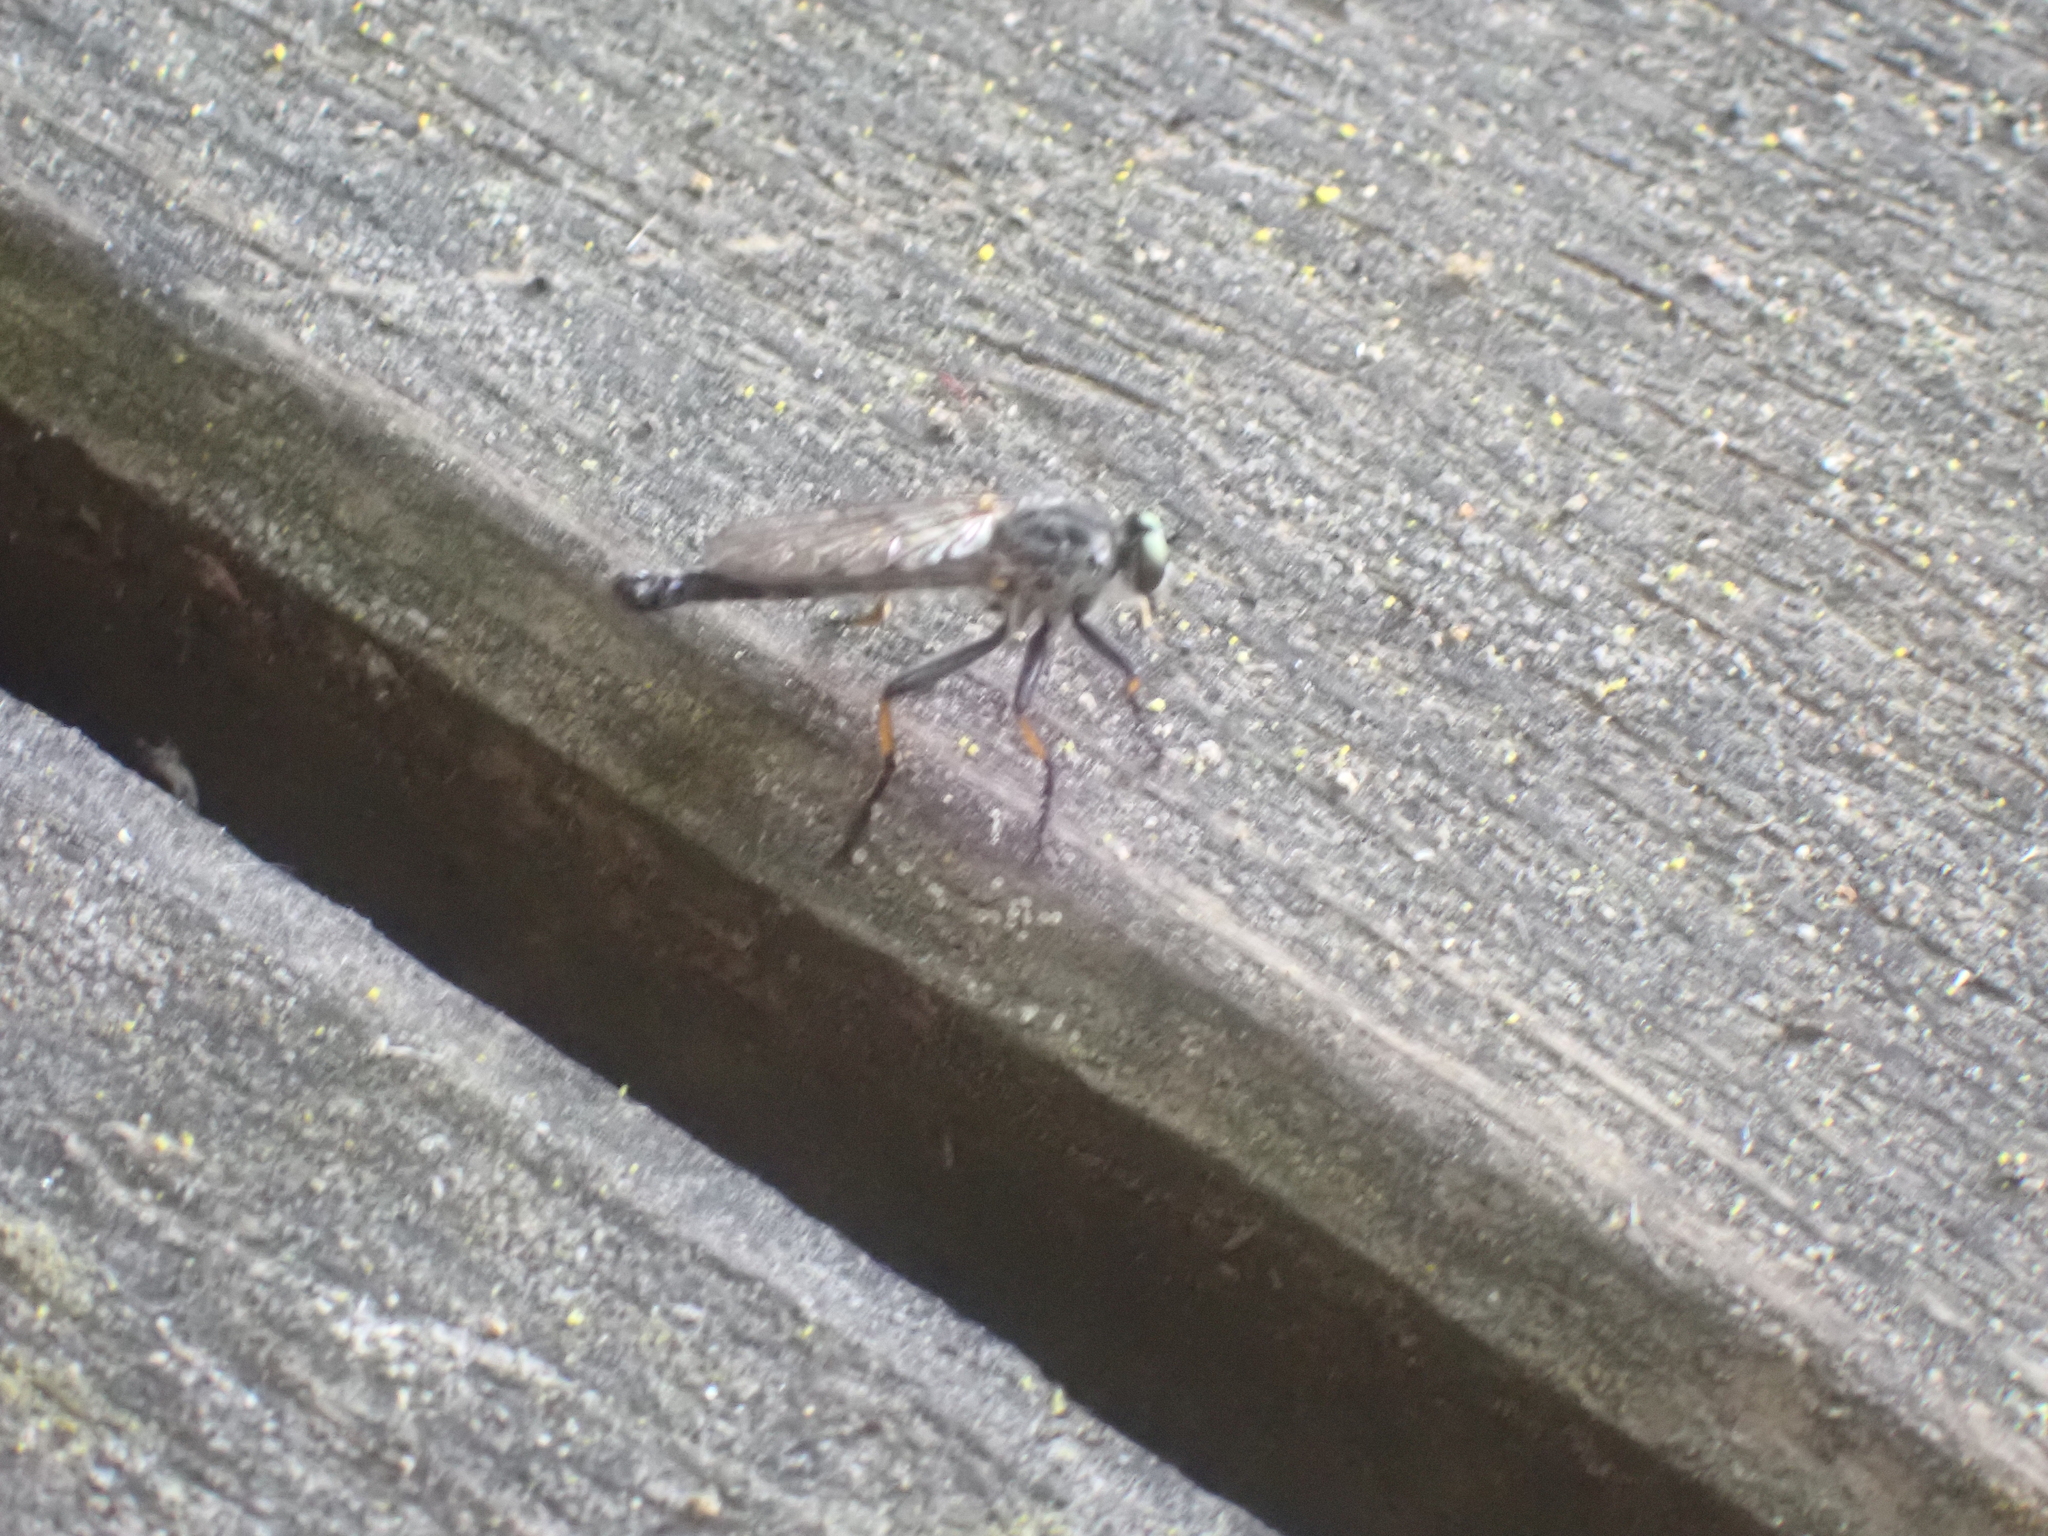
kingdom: Animalia
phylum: Arthropoda
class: Insecta
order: Diptera
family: Asilidae
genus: Neoitamus
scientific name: Neoitamus
